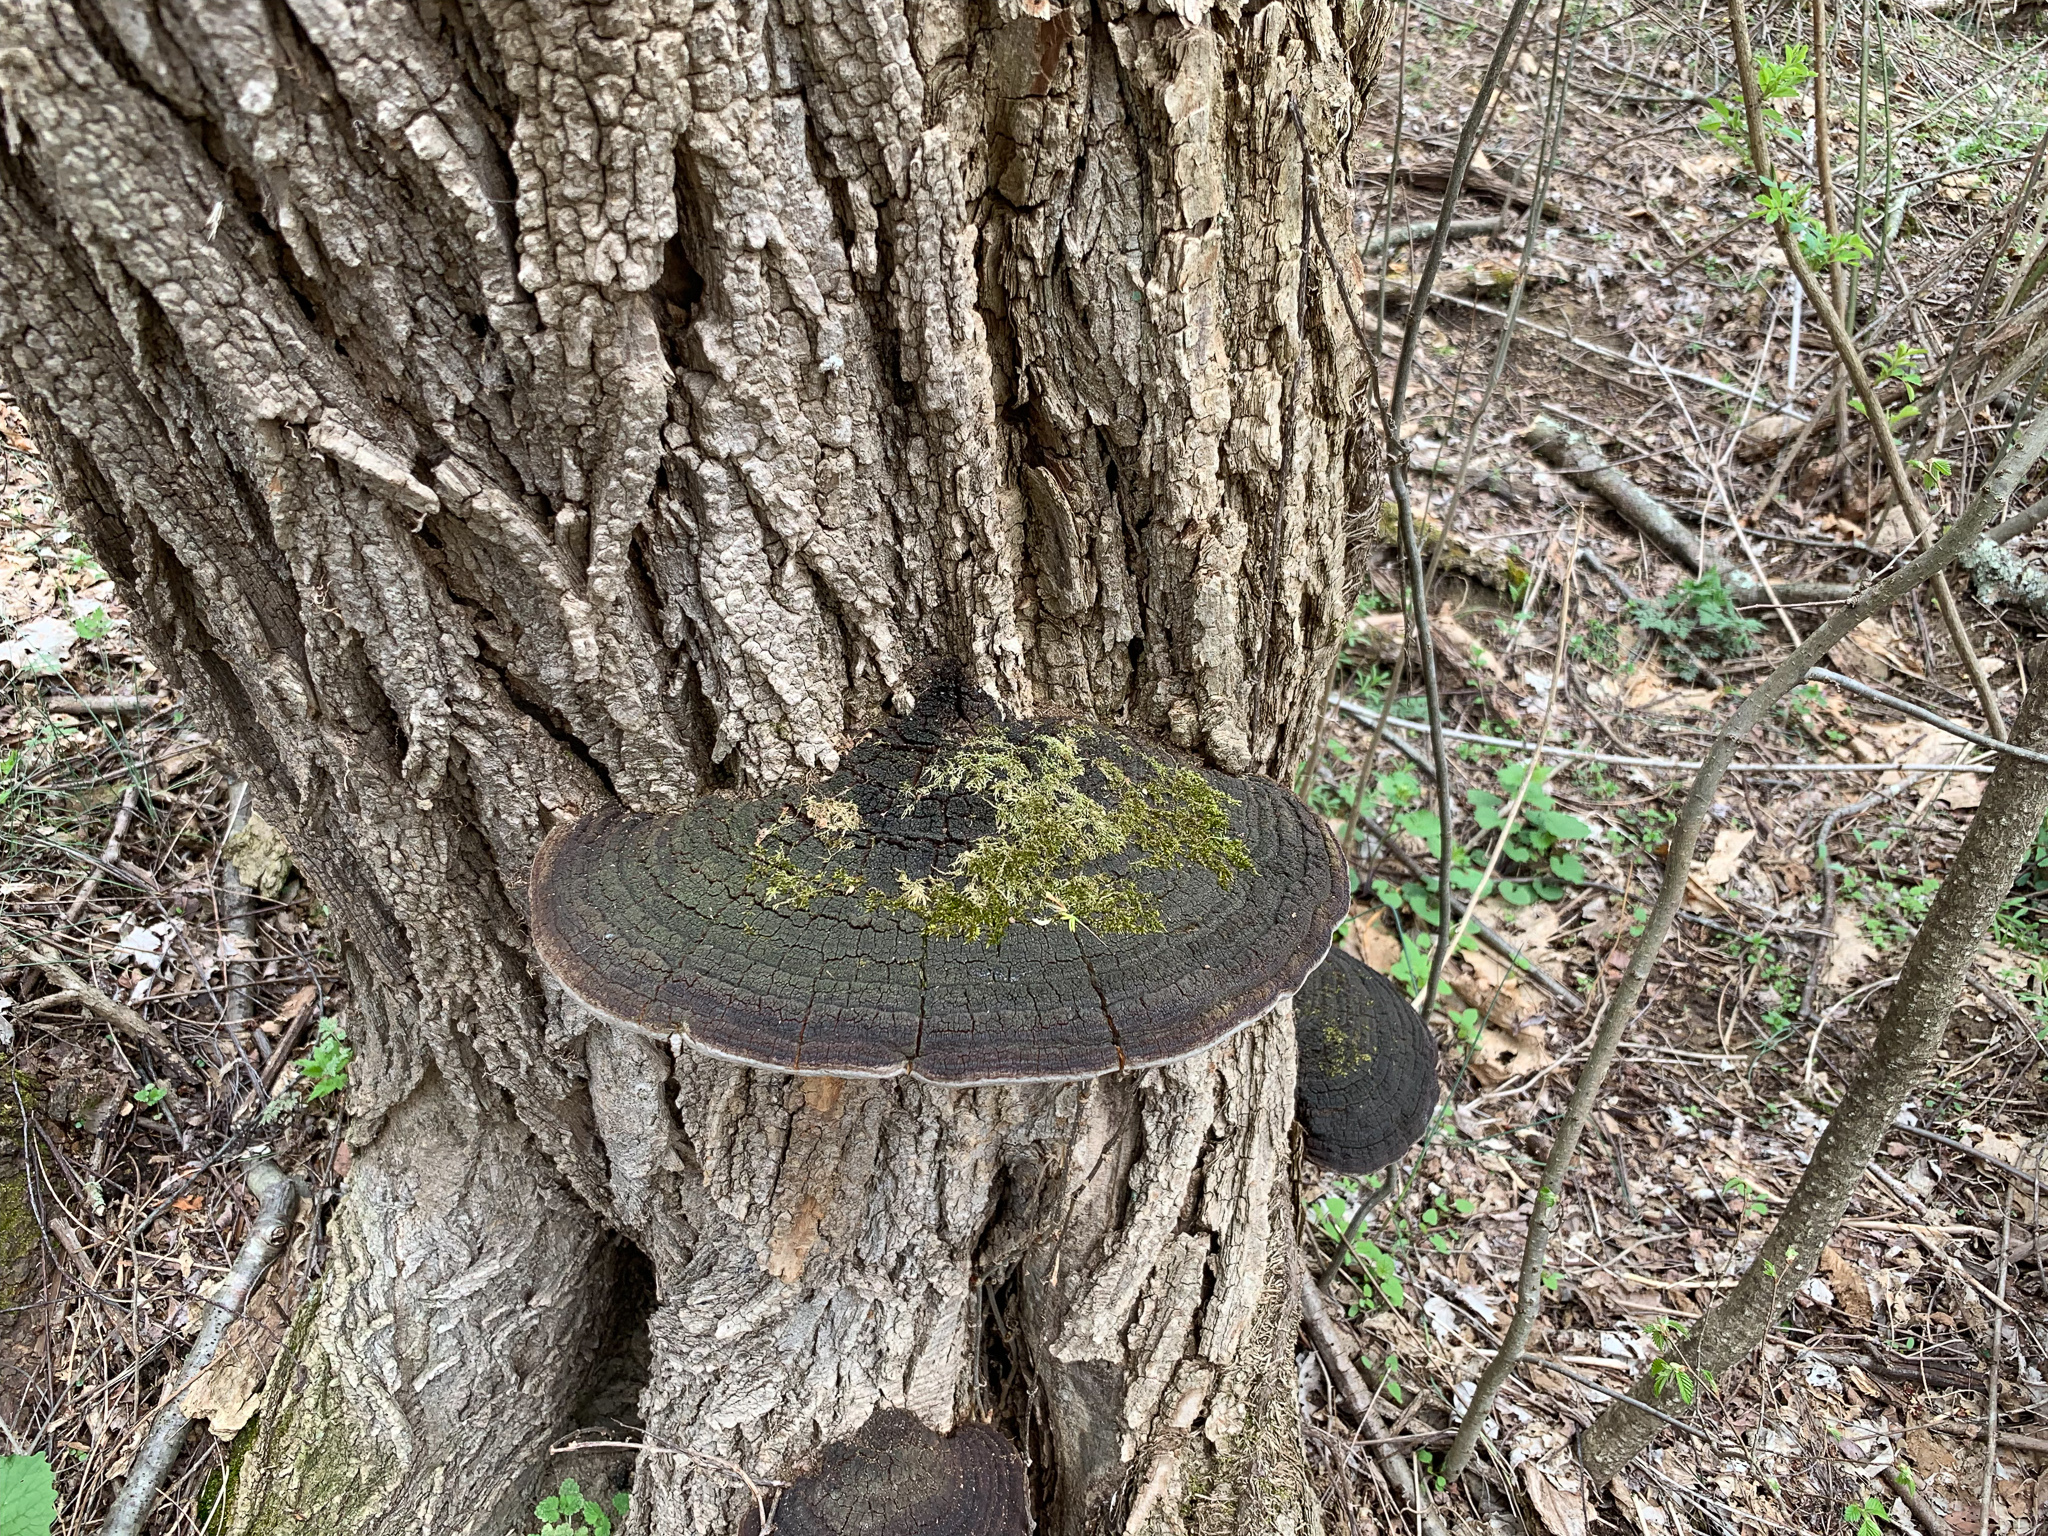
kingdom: Fungi
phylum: Basidiomycota
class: Agaricomycetes
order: Hymenochaetales
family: Hymenochaetaceae
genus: Phellinus
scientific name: Phellinus robiniae
